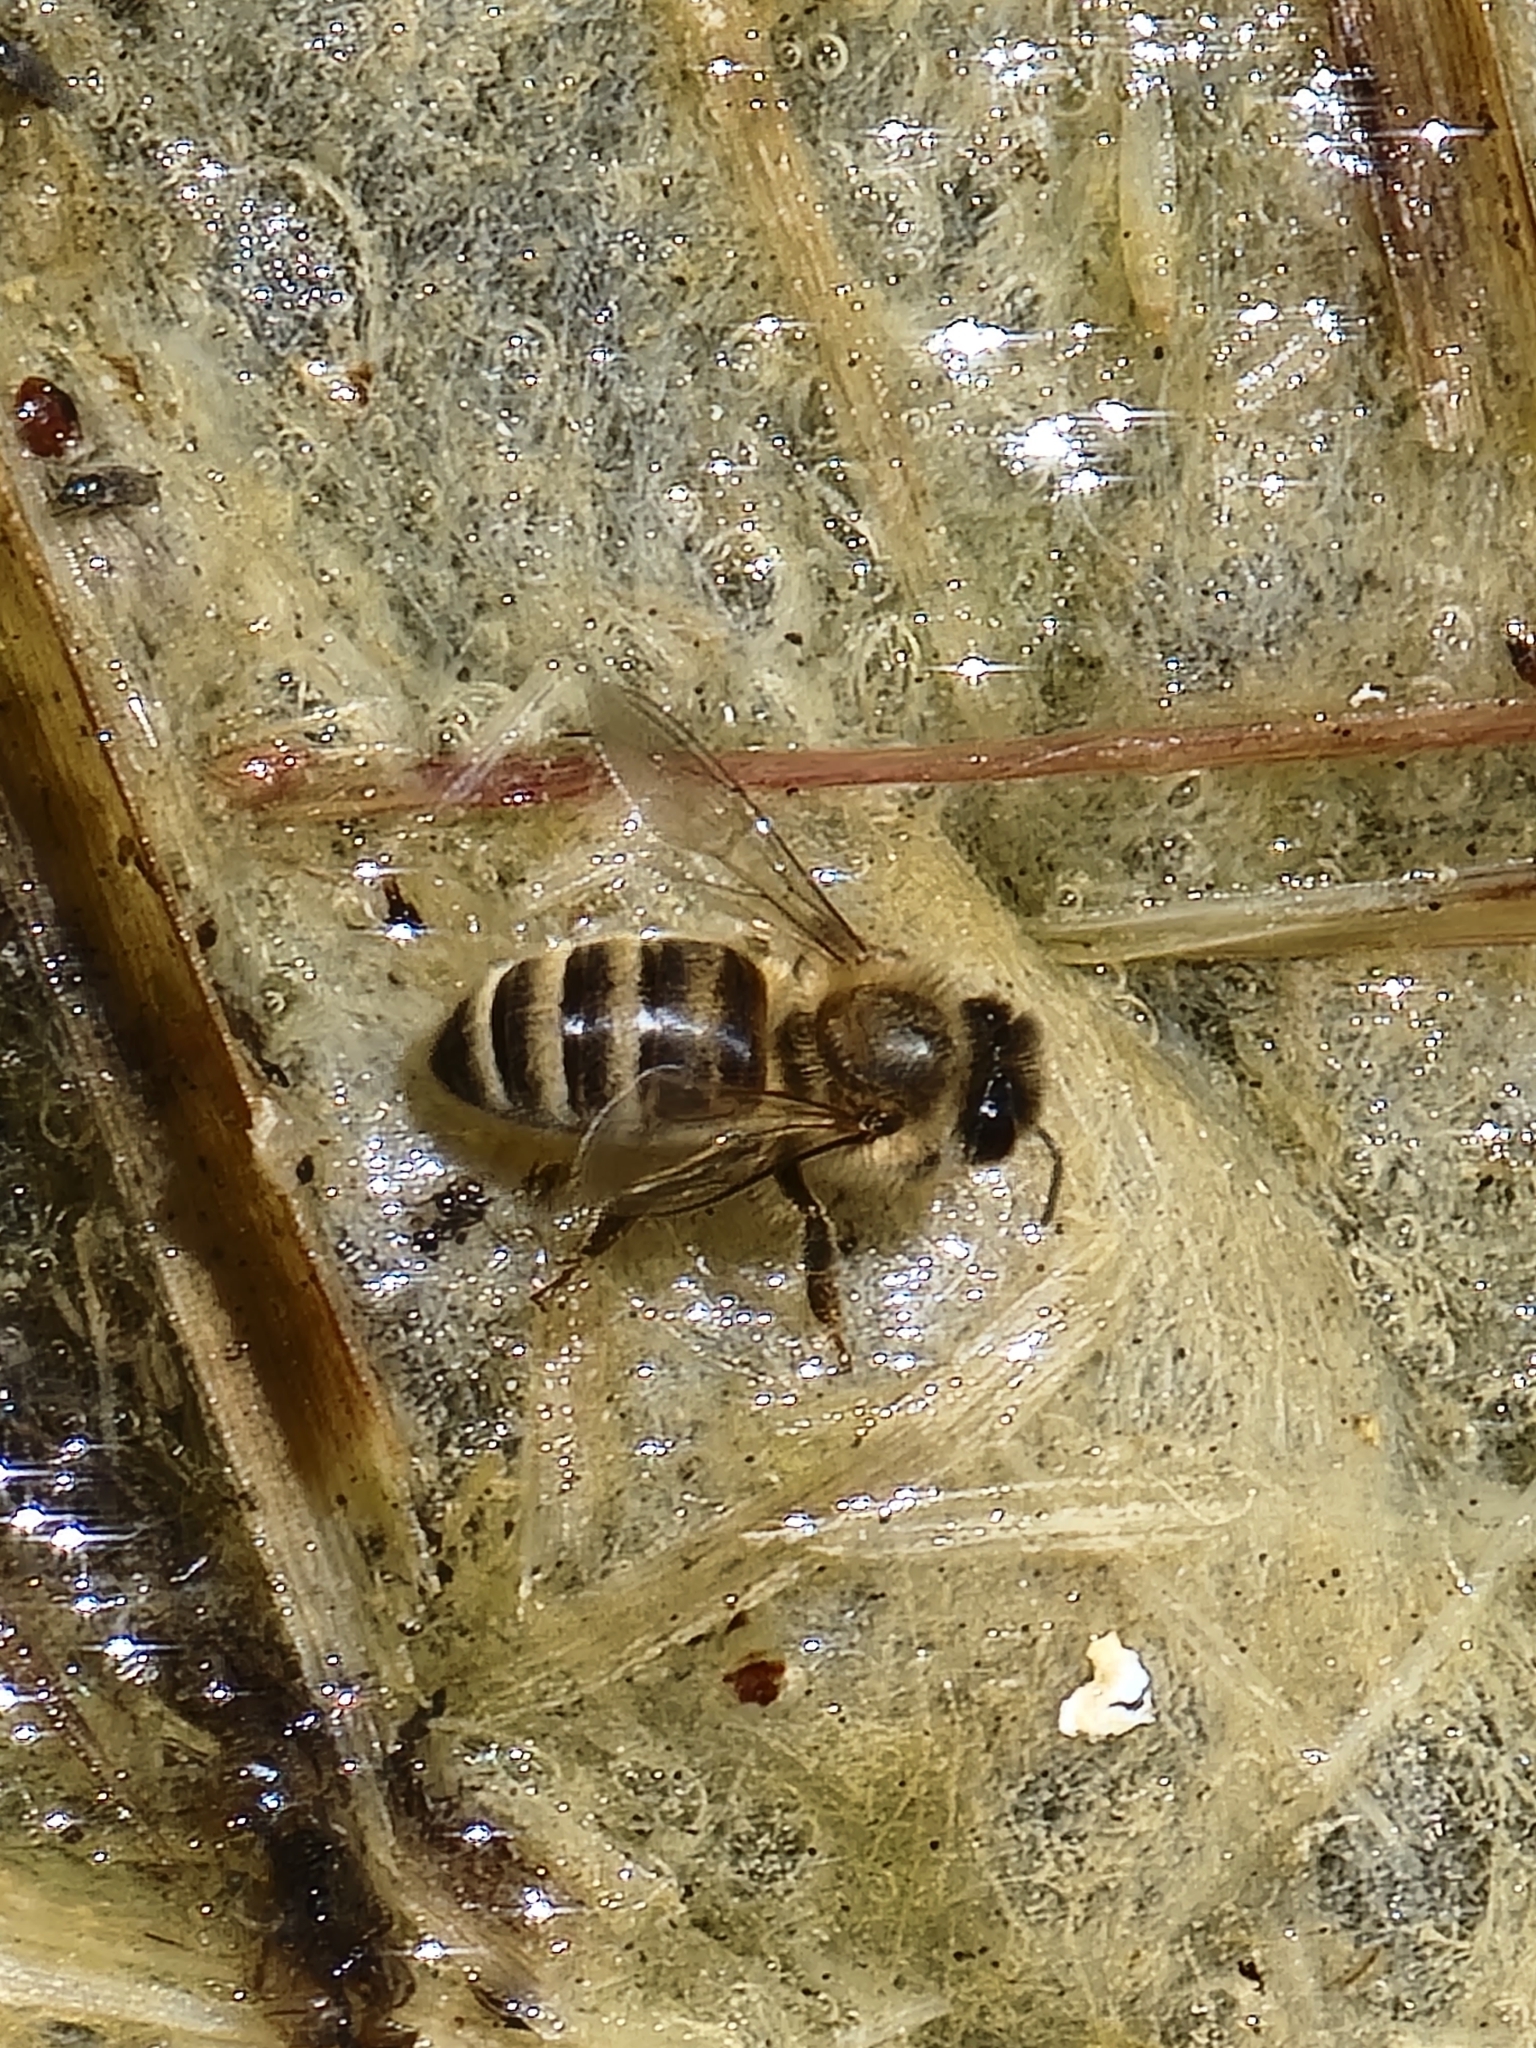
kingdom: Animalia
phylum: Arthropoda
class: Insecta
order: Hymenoptera
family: Apidae
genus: Apis
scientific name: Apis mellifera
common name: Honey bee
